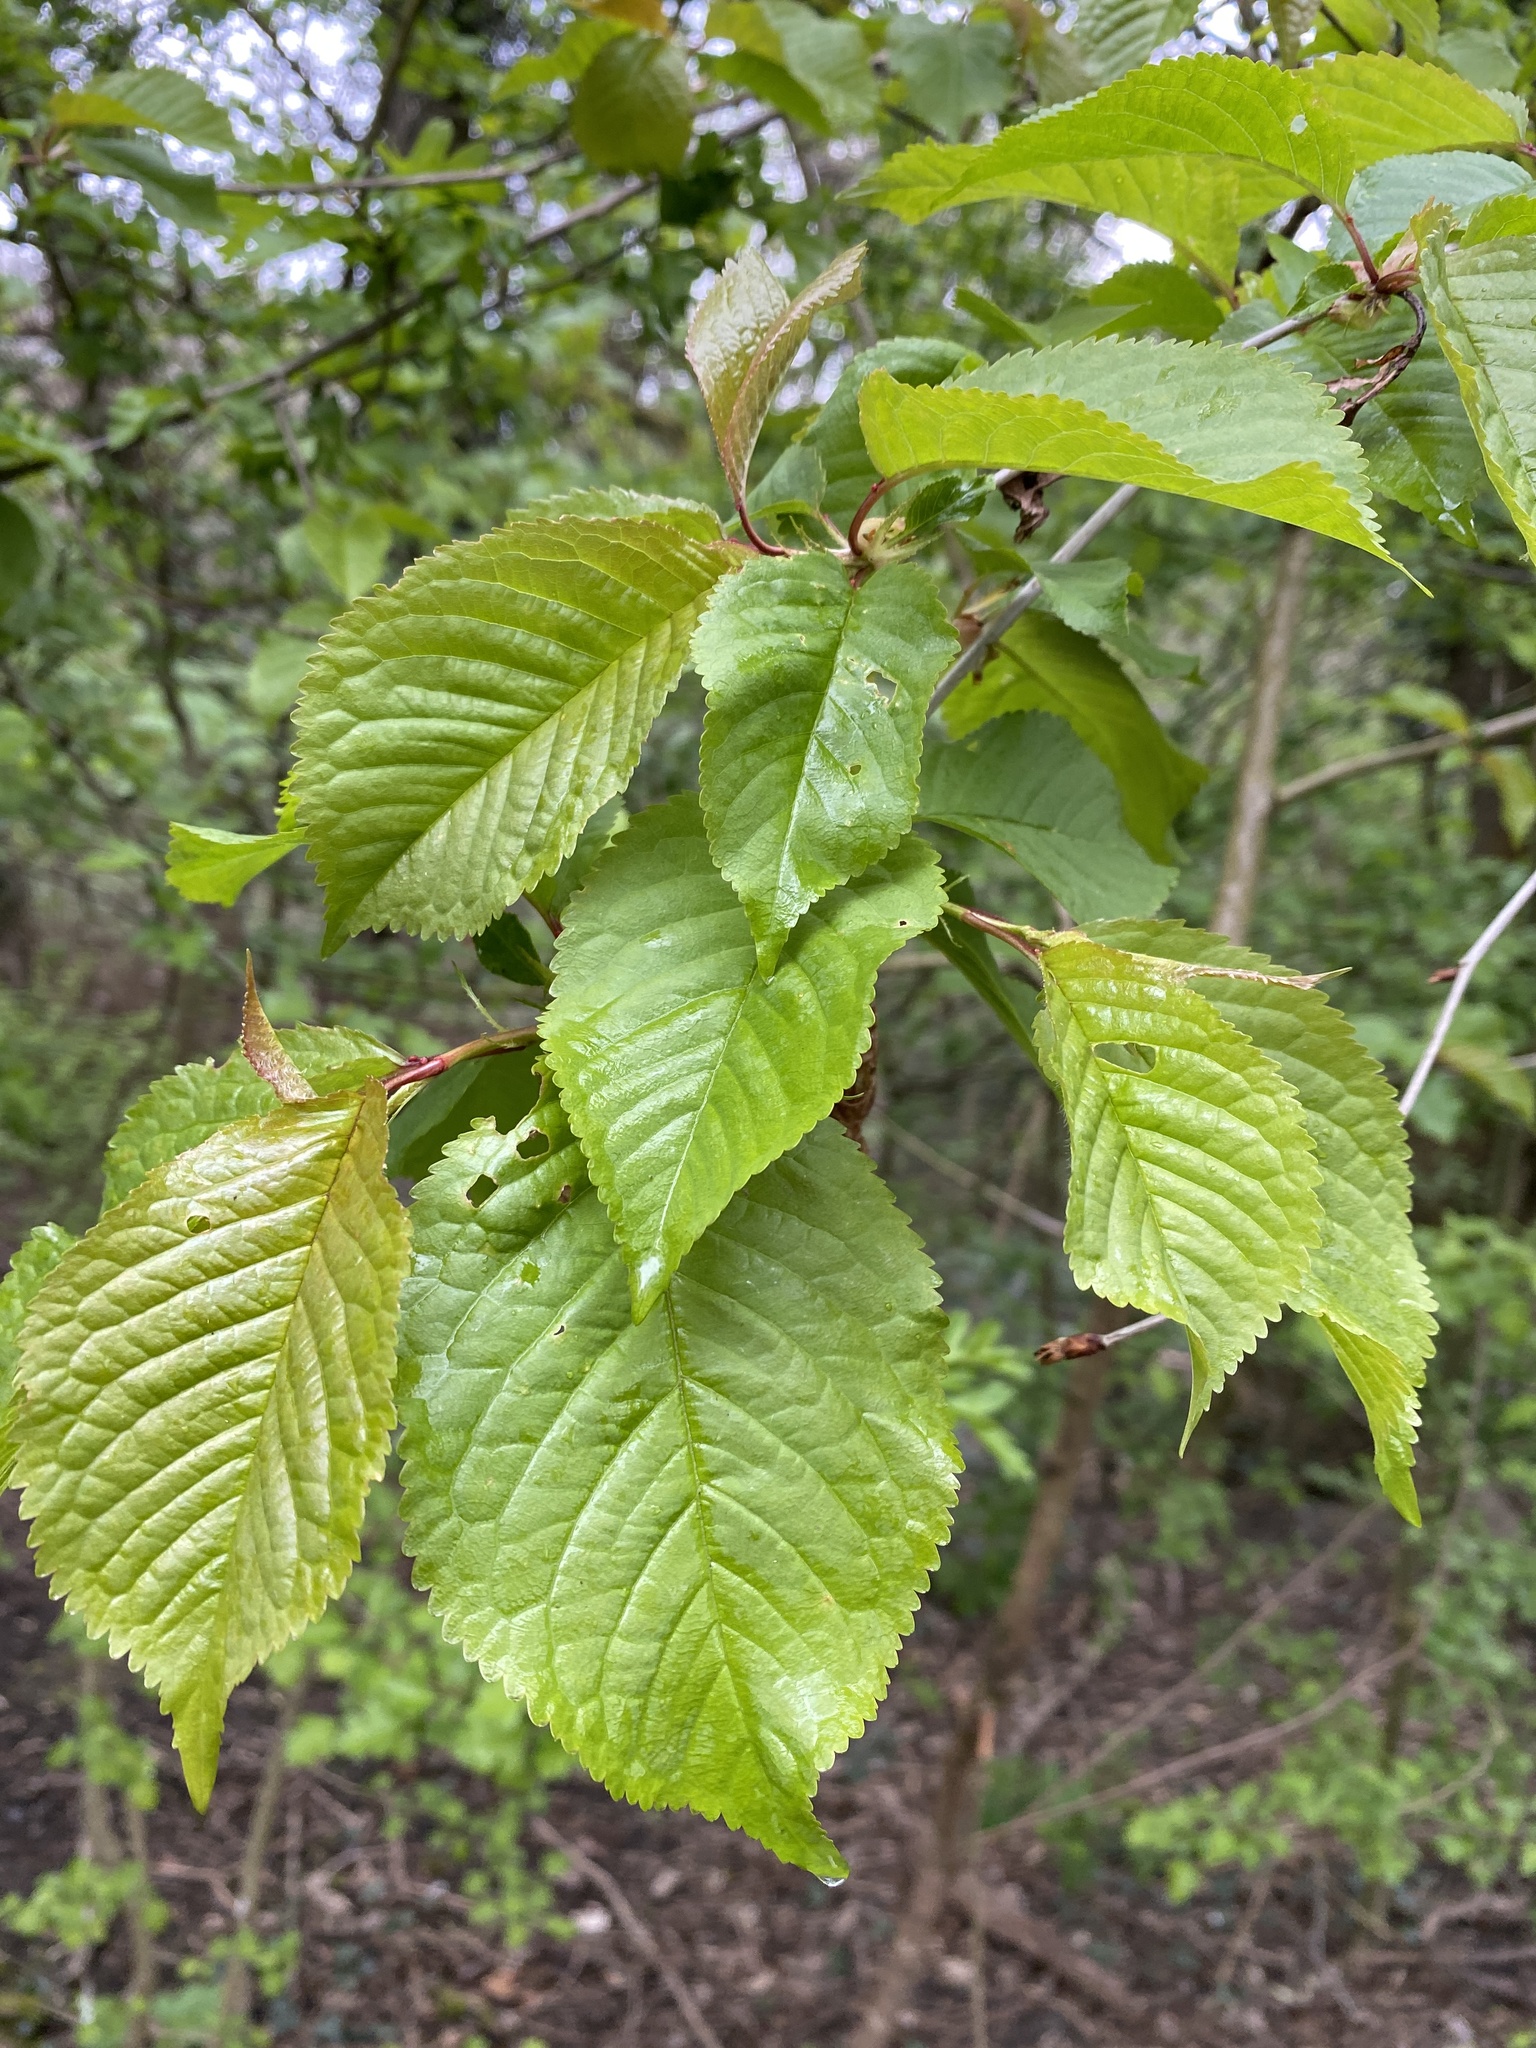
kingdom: Plantae
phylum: Tracheophyta
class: Magnoliopsida
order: Rosales
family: Rosaceae
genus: Prunus
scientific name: Prunus avium
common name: Sweet cherry
